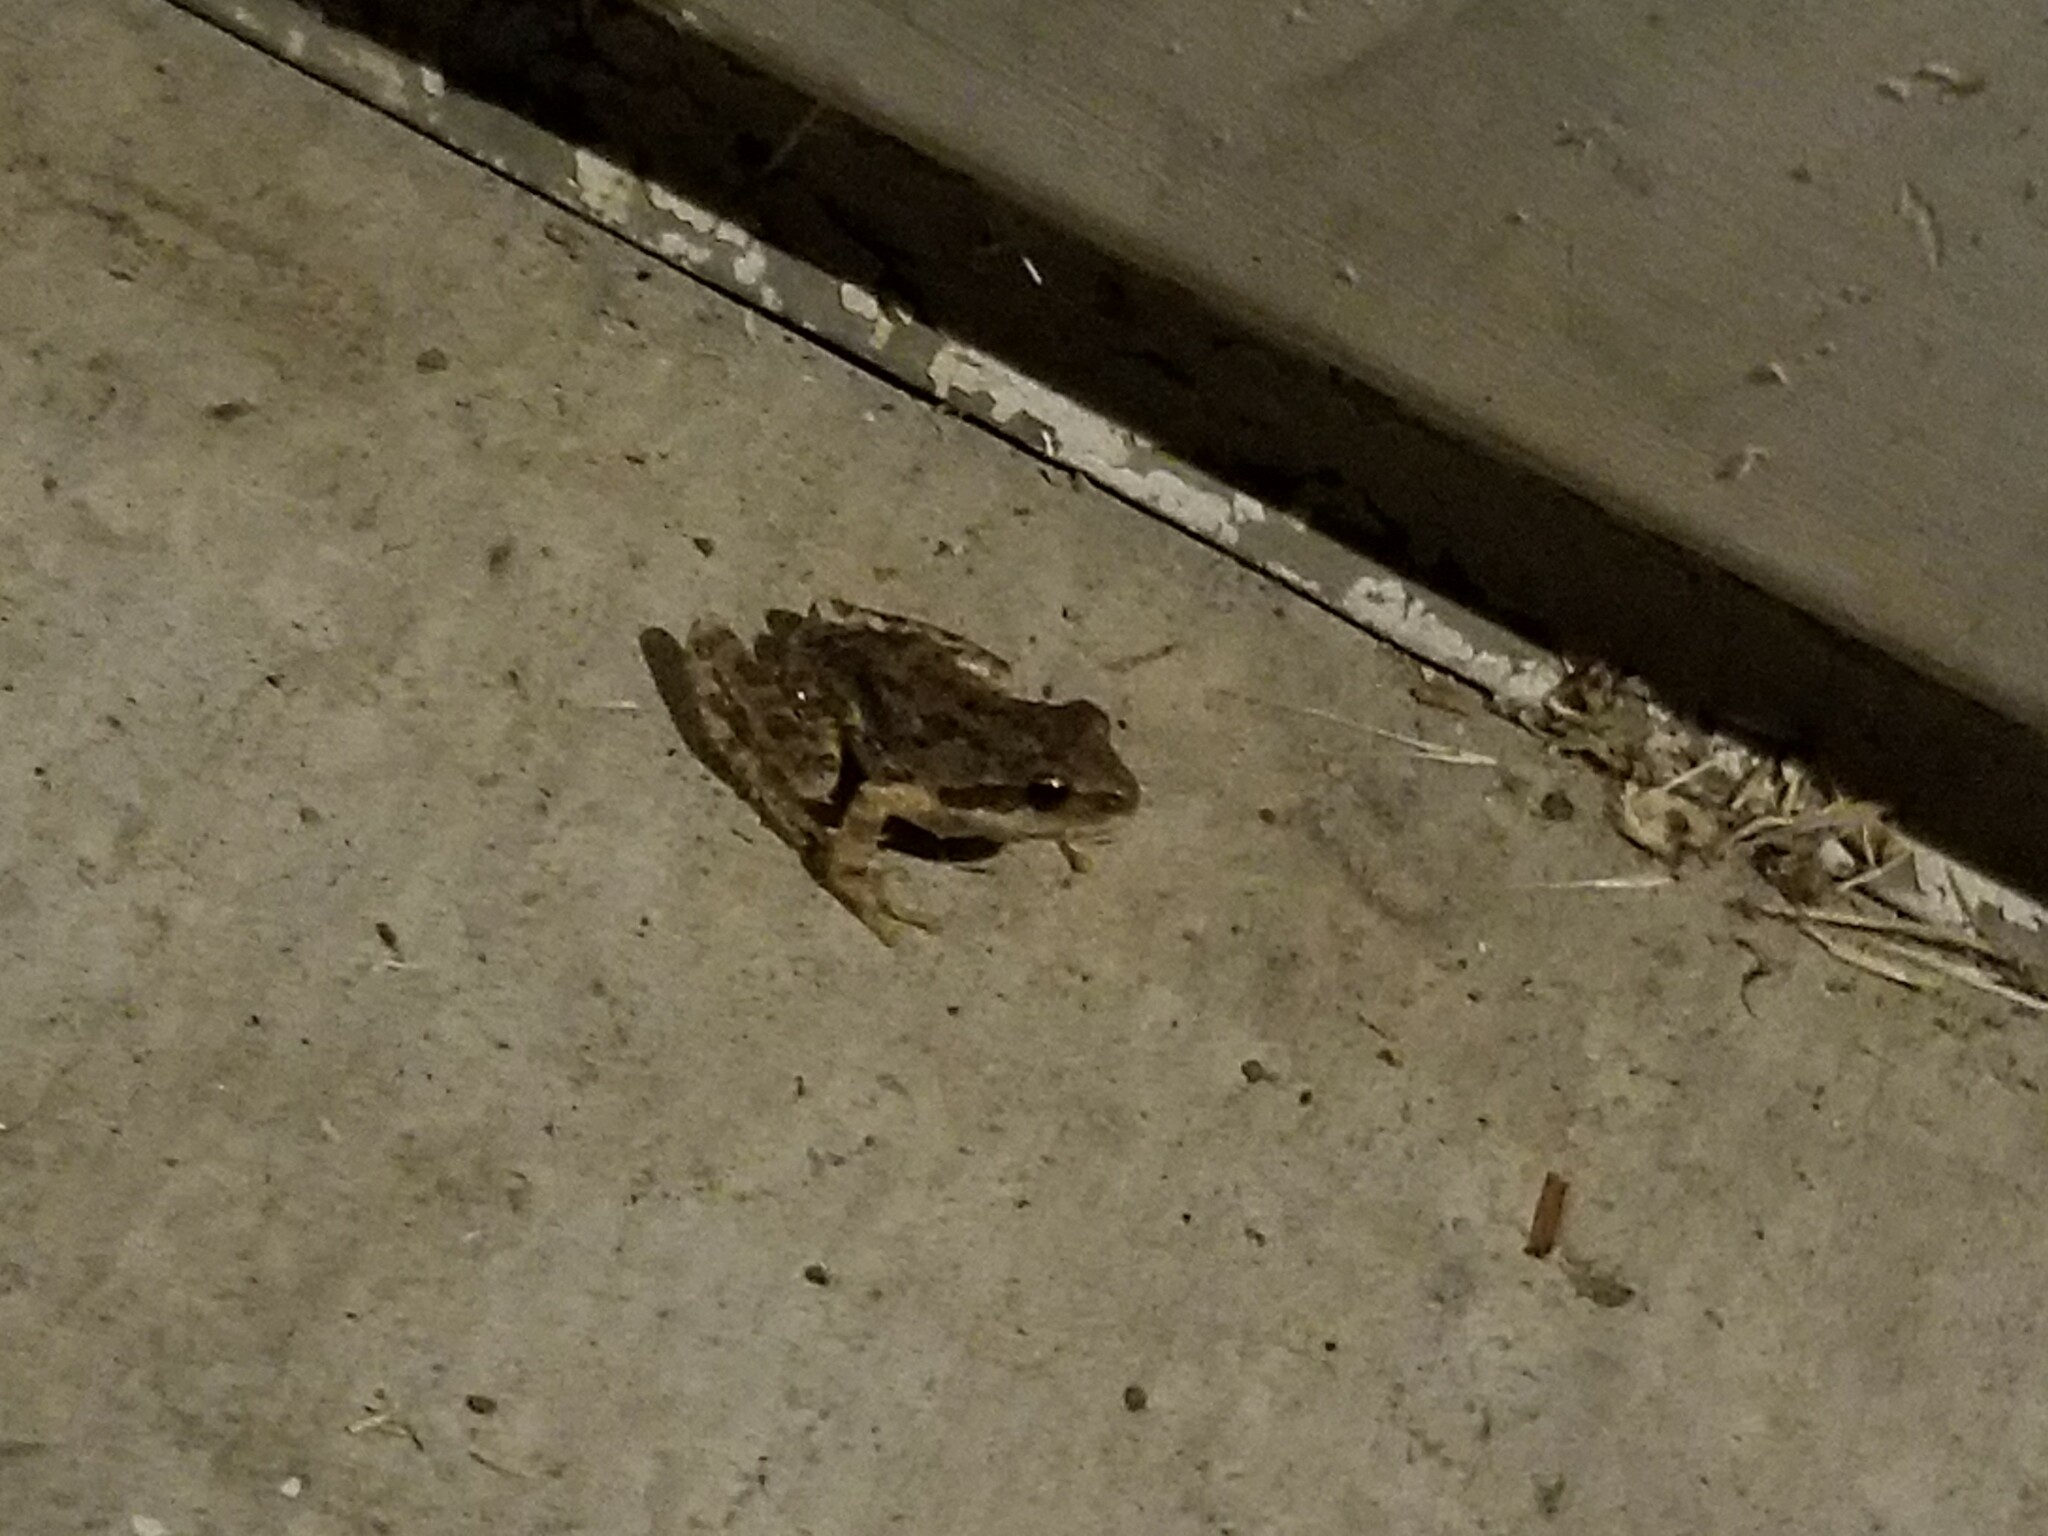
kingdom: Animalia
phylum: Chordata
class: Amphibia
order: Anura
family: Hylidae
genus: Pseudacris
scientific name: Pseudacris regilla
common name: Pacific chorus frog
